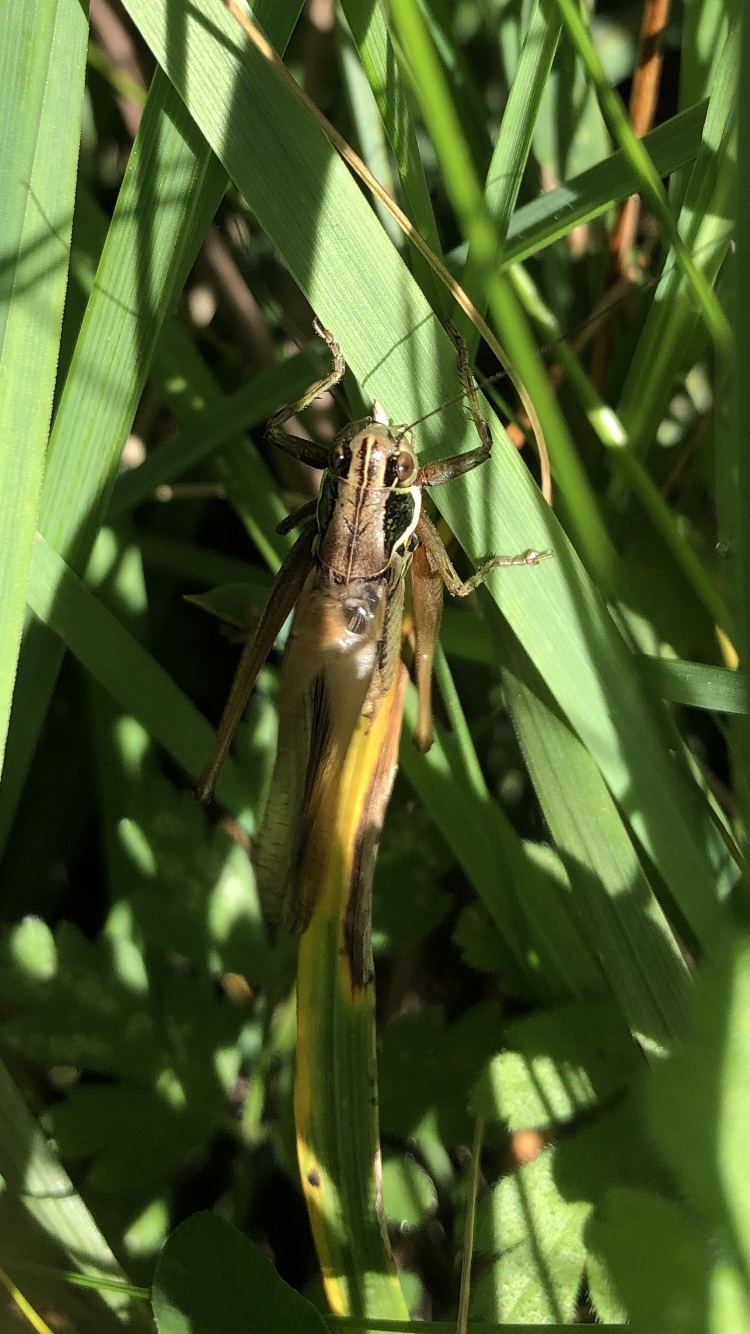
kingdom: Animalia
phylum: Arthropoda
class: Insecta
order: Orthoptera
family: Tettigoniidae
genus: Roeseliana
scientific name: Roeseliana roeselii
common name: Roesel's bush cricket
